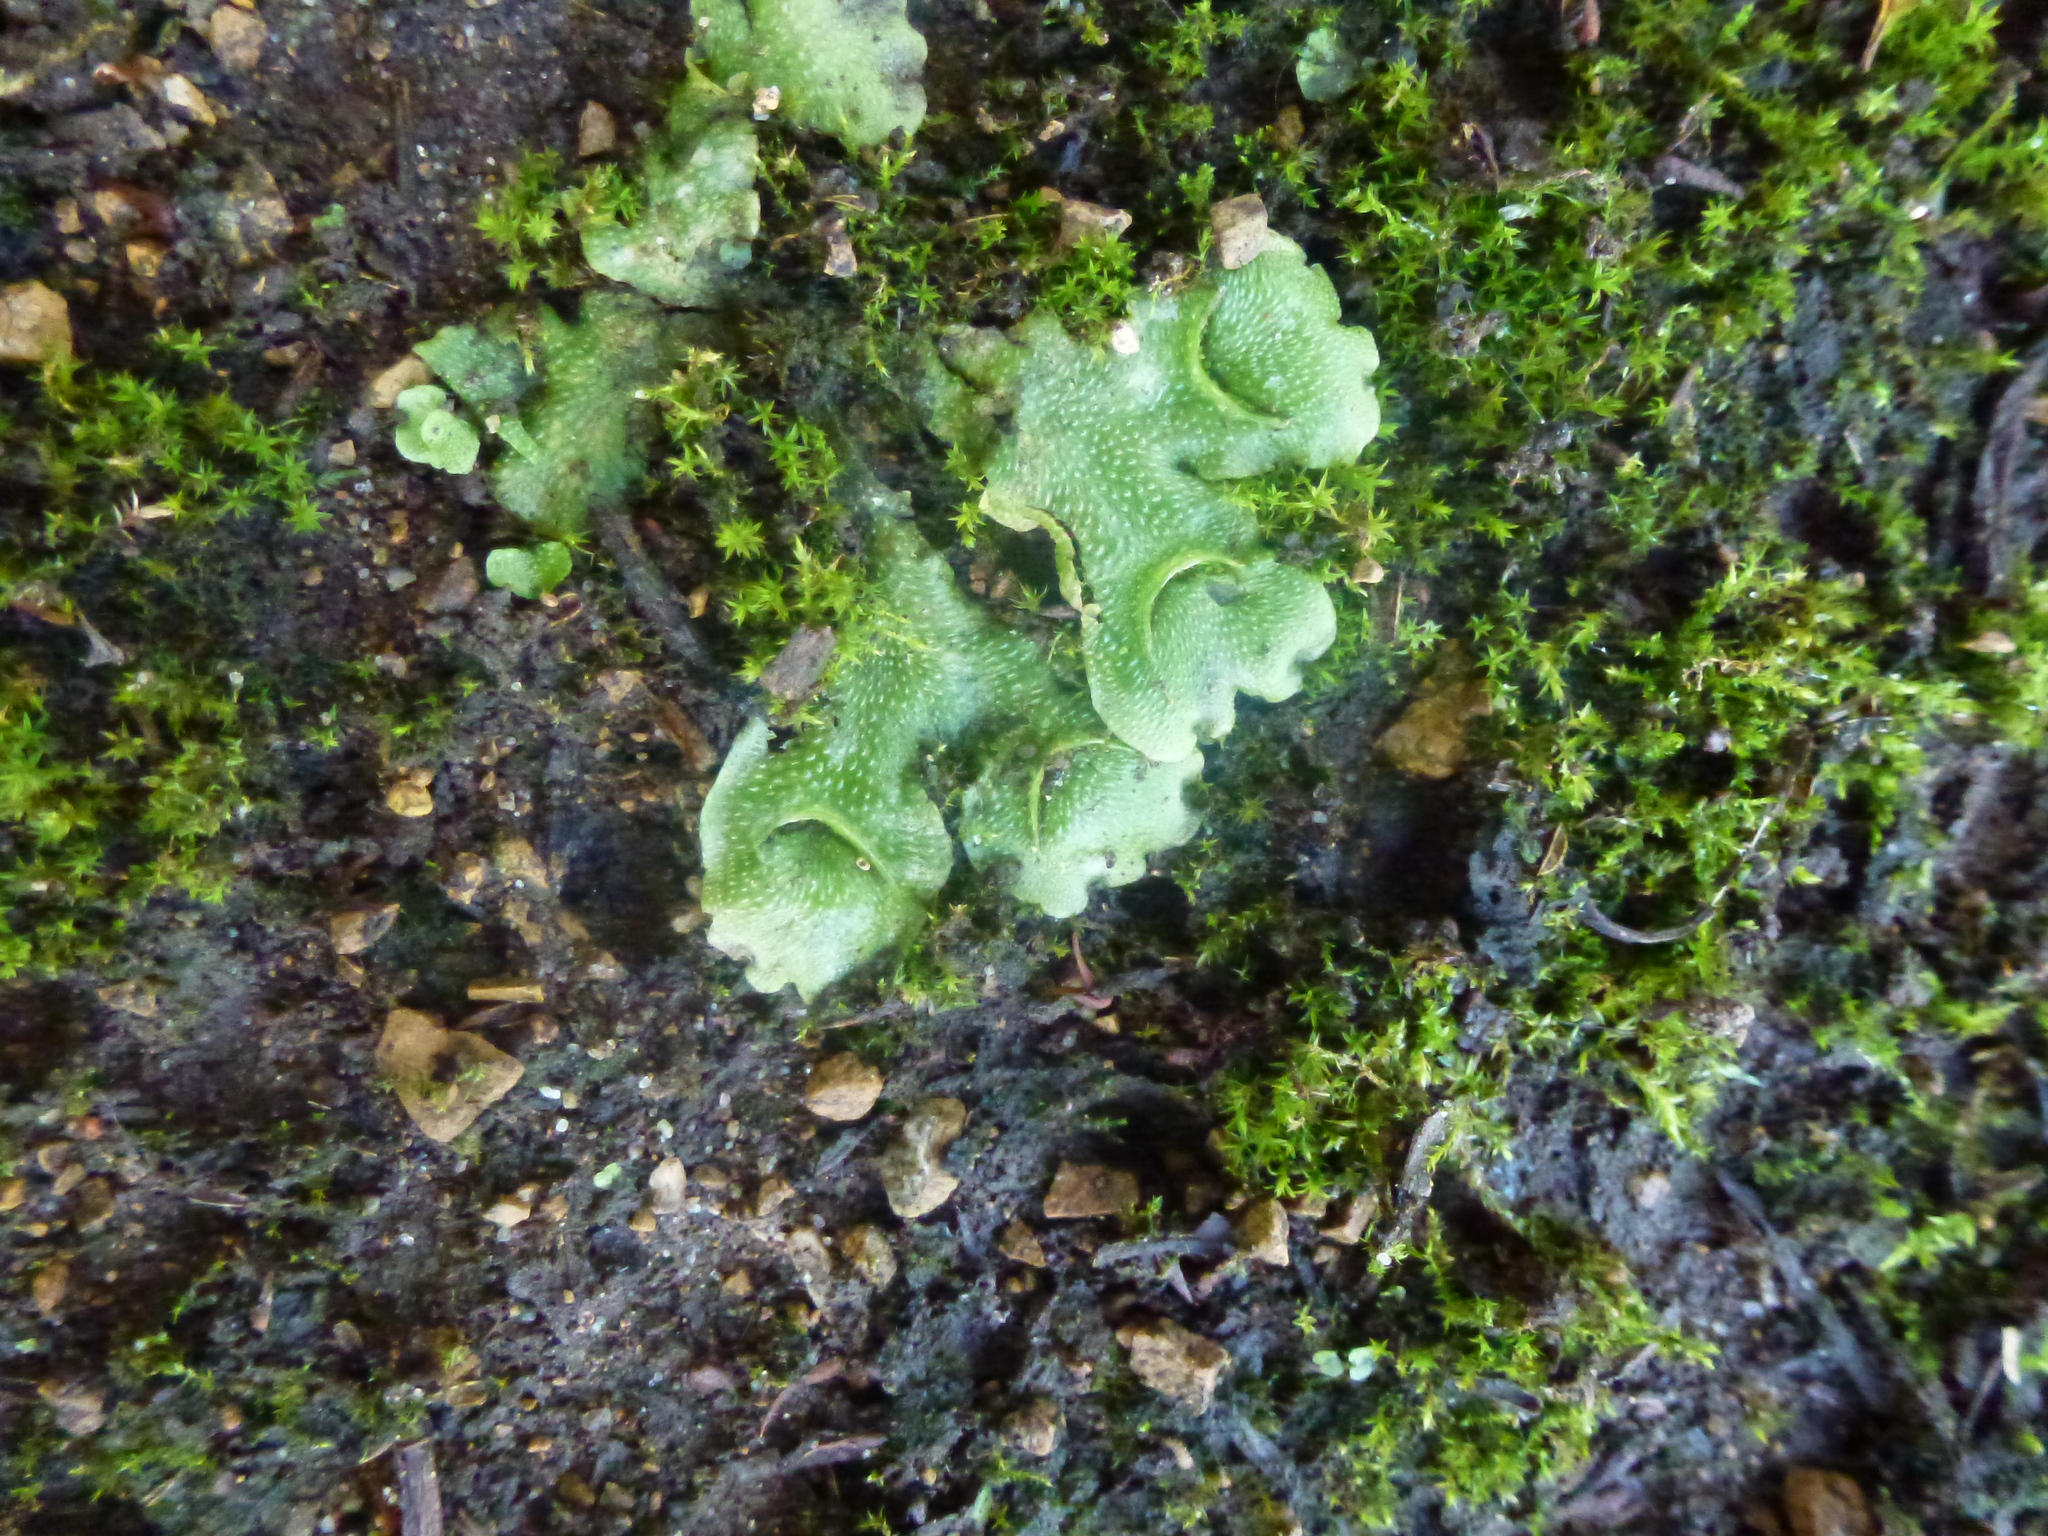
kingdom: Plantae
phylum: Marchantiophyta
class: Marchantiopsida
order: Lunulariales
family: Lunulariaceae
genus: Lunularia
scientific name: Lunularia cruciata
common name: Crescent-cup liverwort
